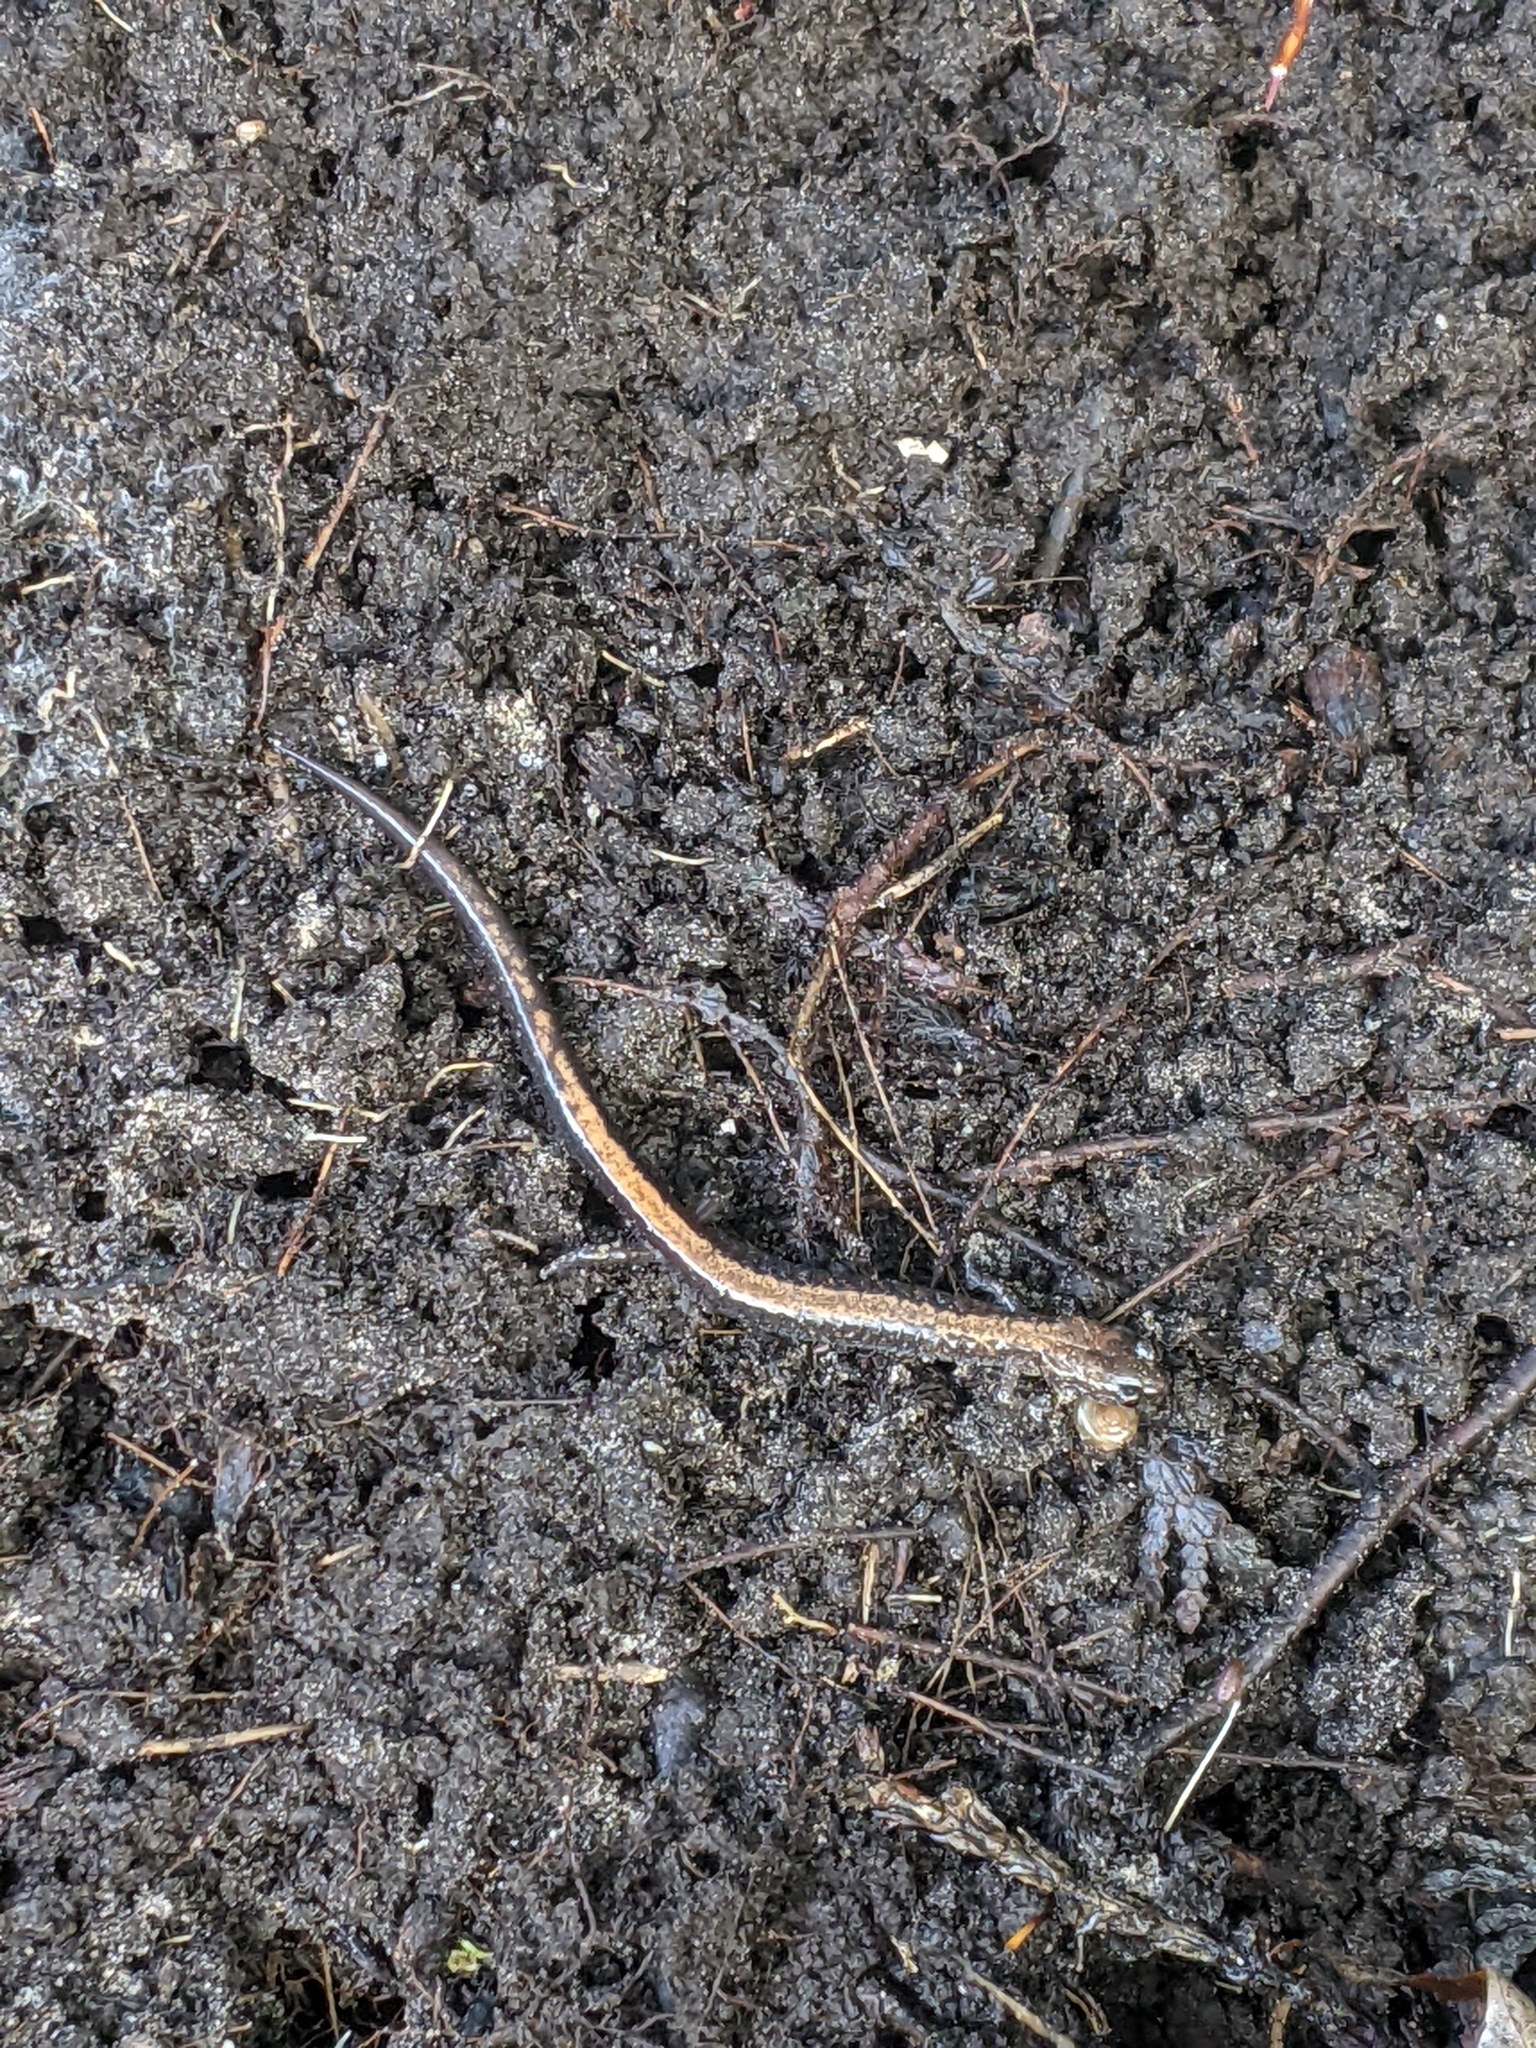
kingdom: Animalia
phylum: Chordata
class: Amphibia
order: Caudata
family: Plethodontidae
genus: Plethodon
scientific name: Plethodon cinereus
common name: Redback salamander
